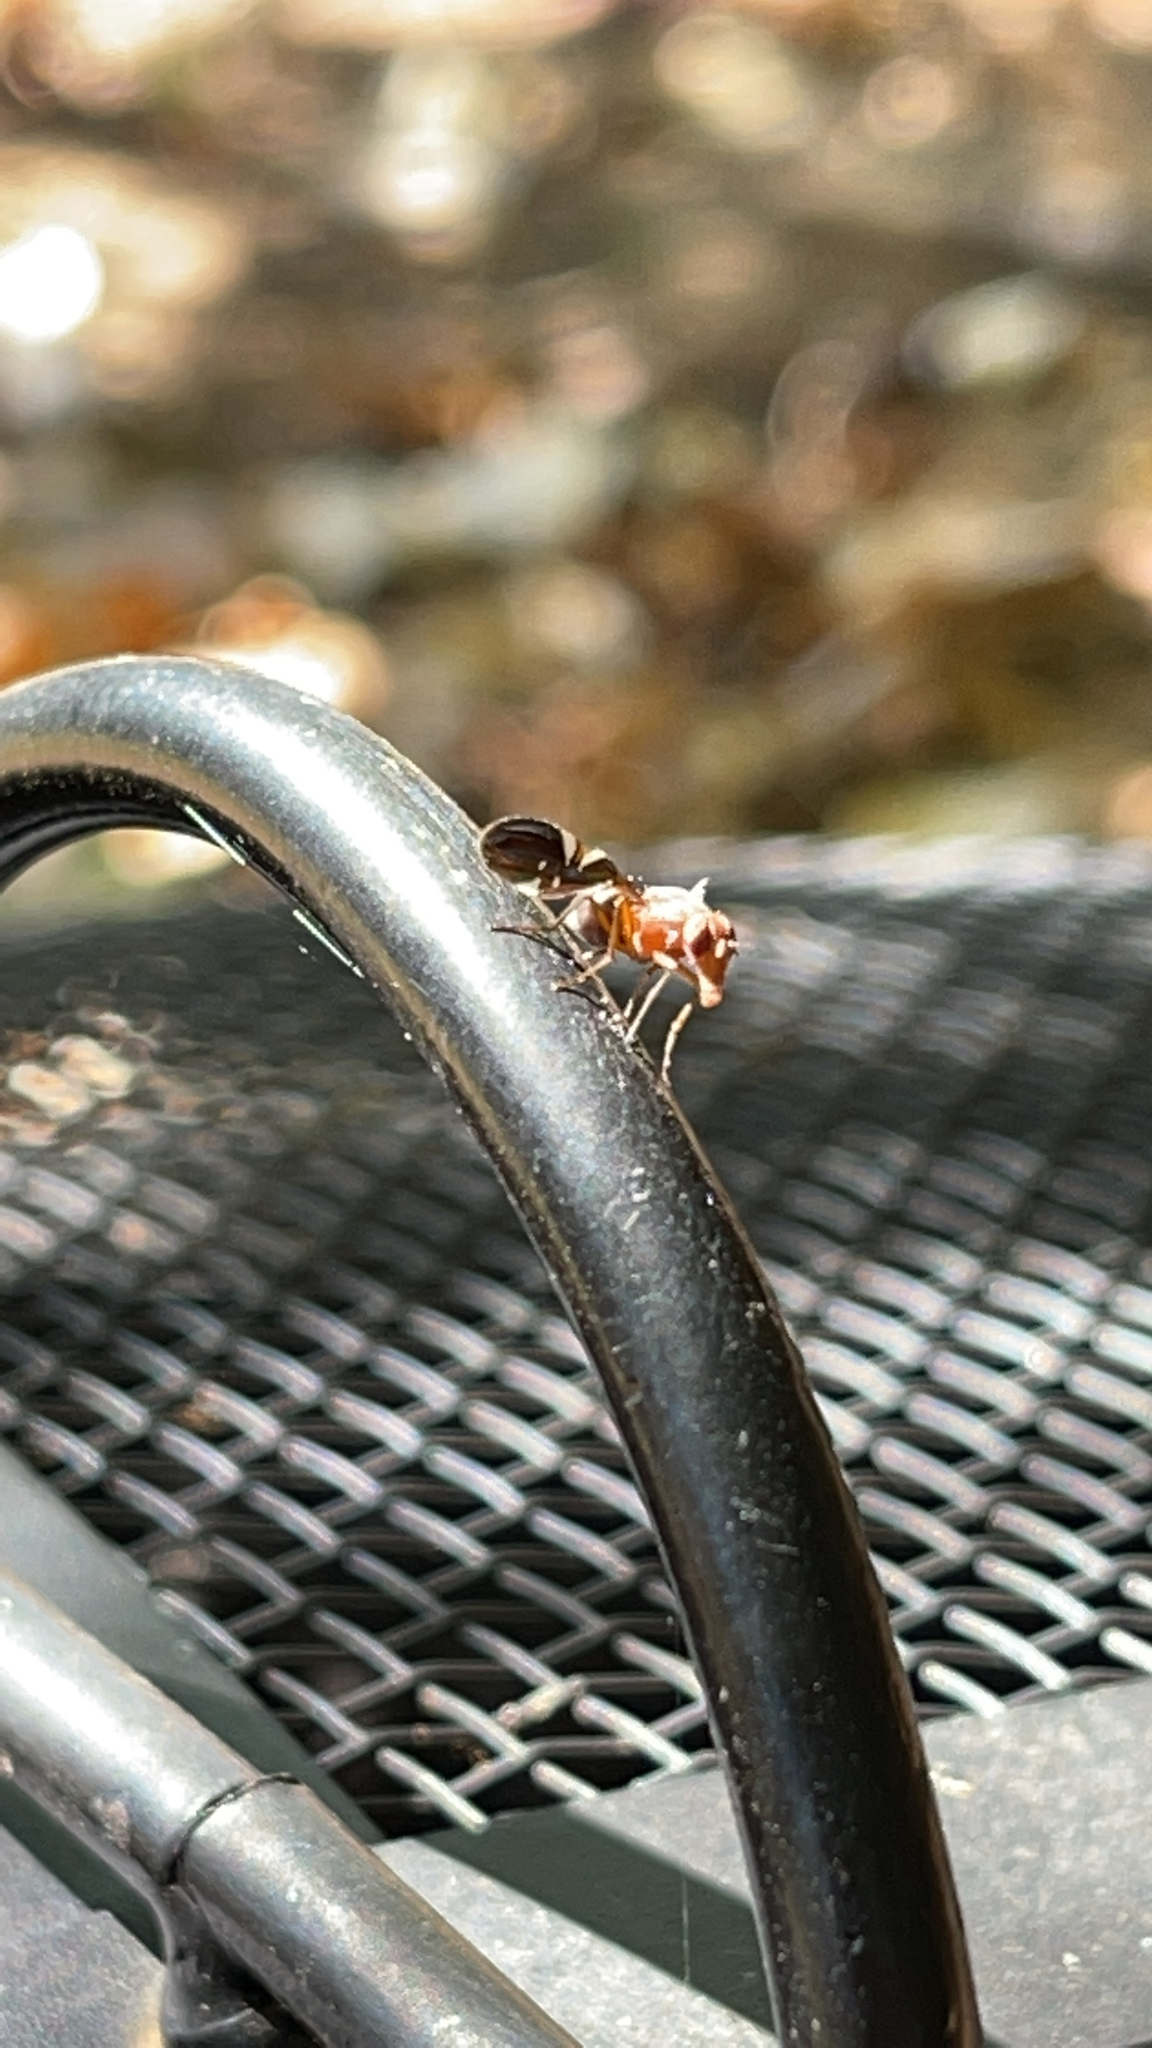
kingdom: Animalia
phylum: Arthropoda
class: Insecta
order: Diptera
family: Ulidiidae
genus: Delphinia
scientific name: Delphinia picta
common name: Common picture-winged fly
